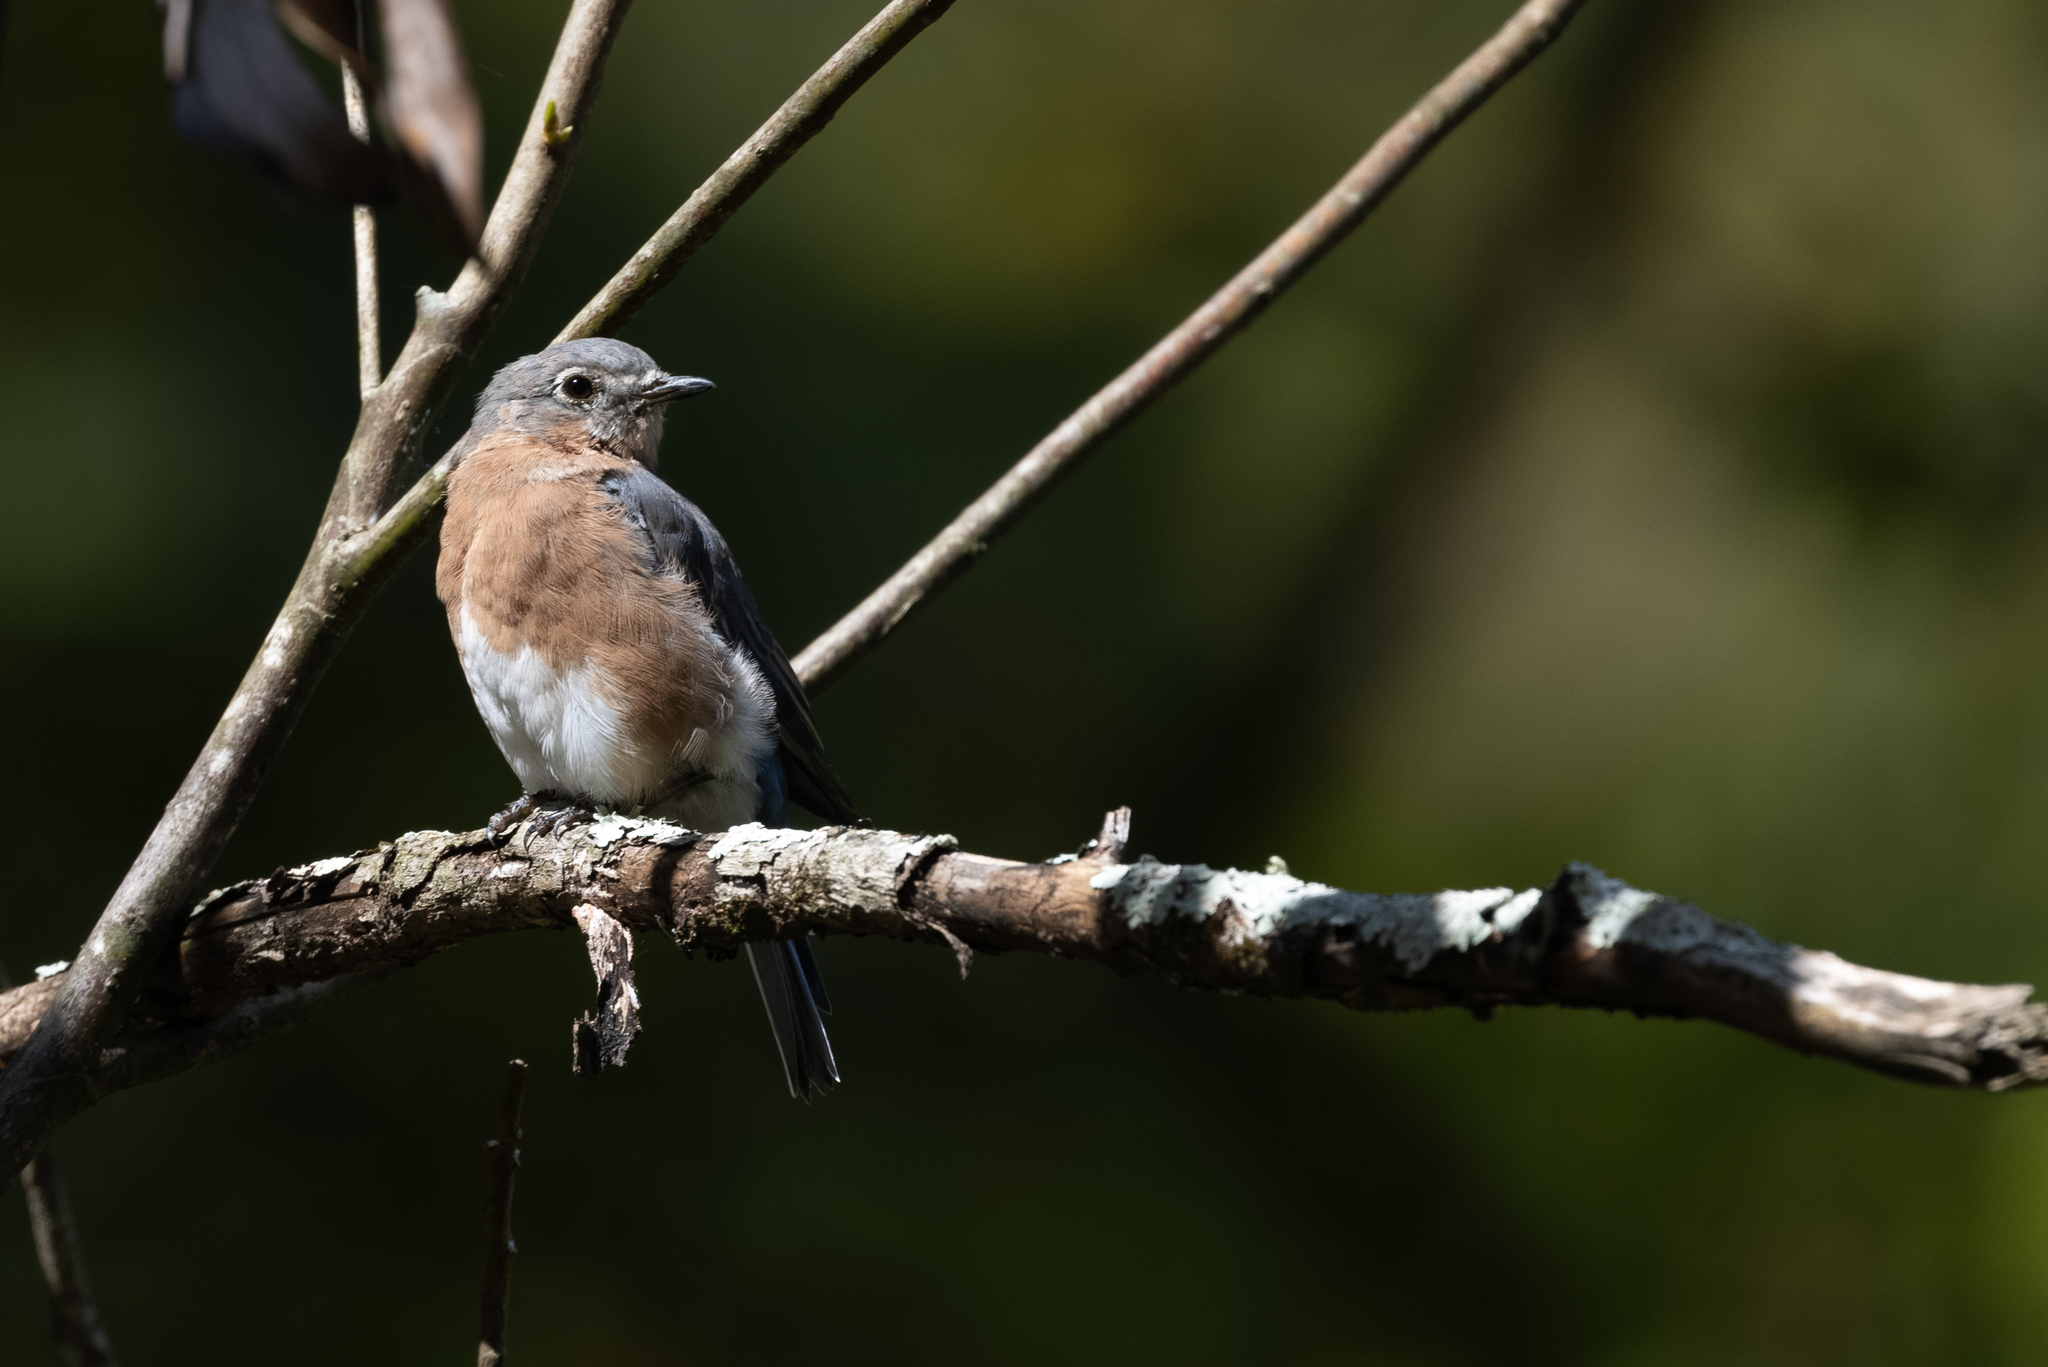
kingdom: Animalia
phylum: Chordata
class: Aves
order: Passeriformes
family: Turdidae
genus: Sialia
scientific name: Sialia sialis
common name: Eastern bluebird
